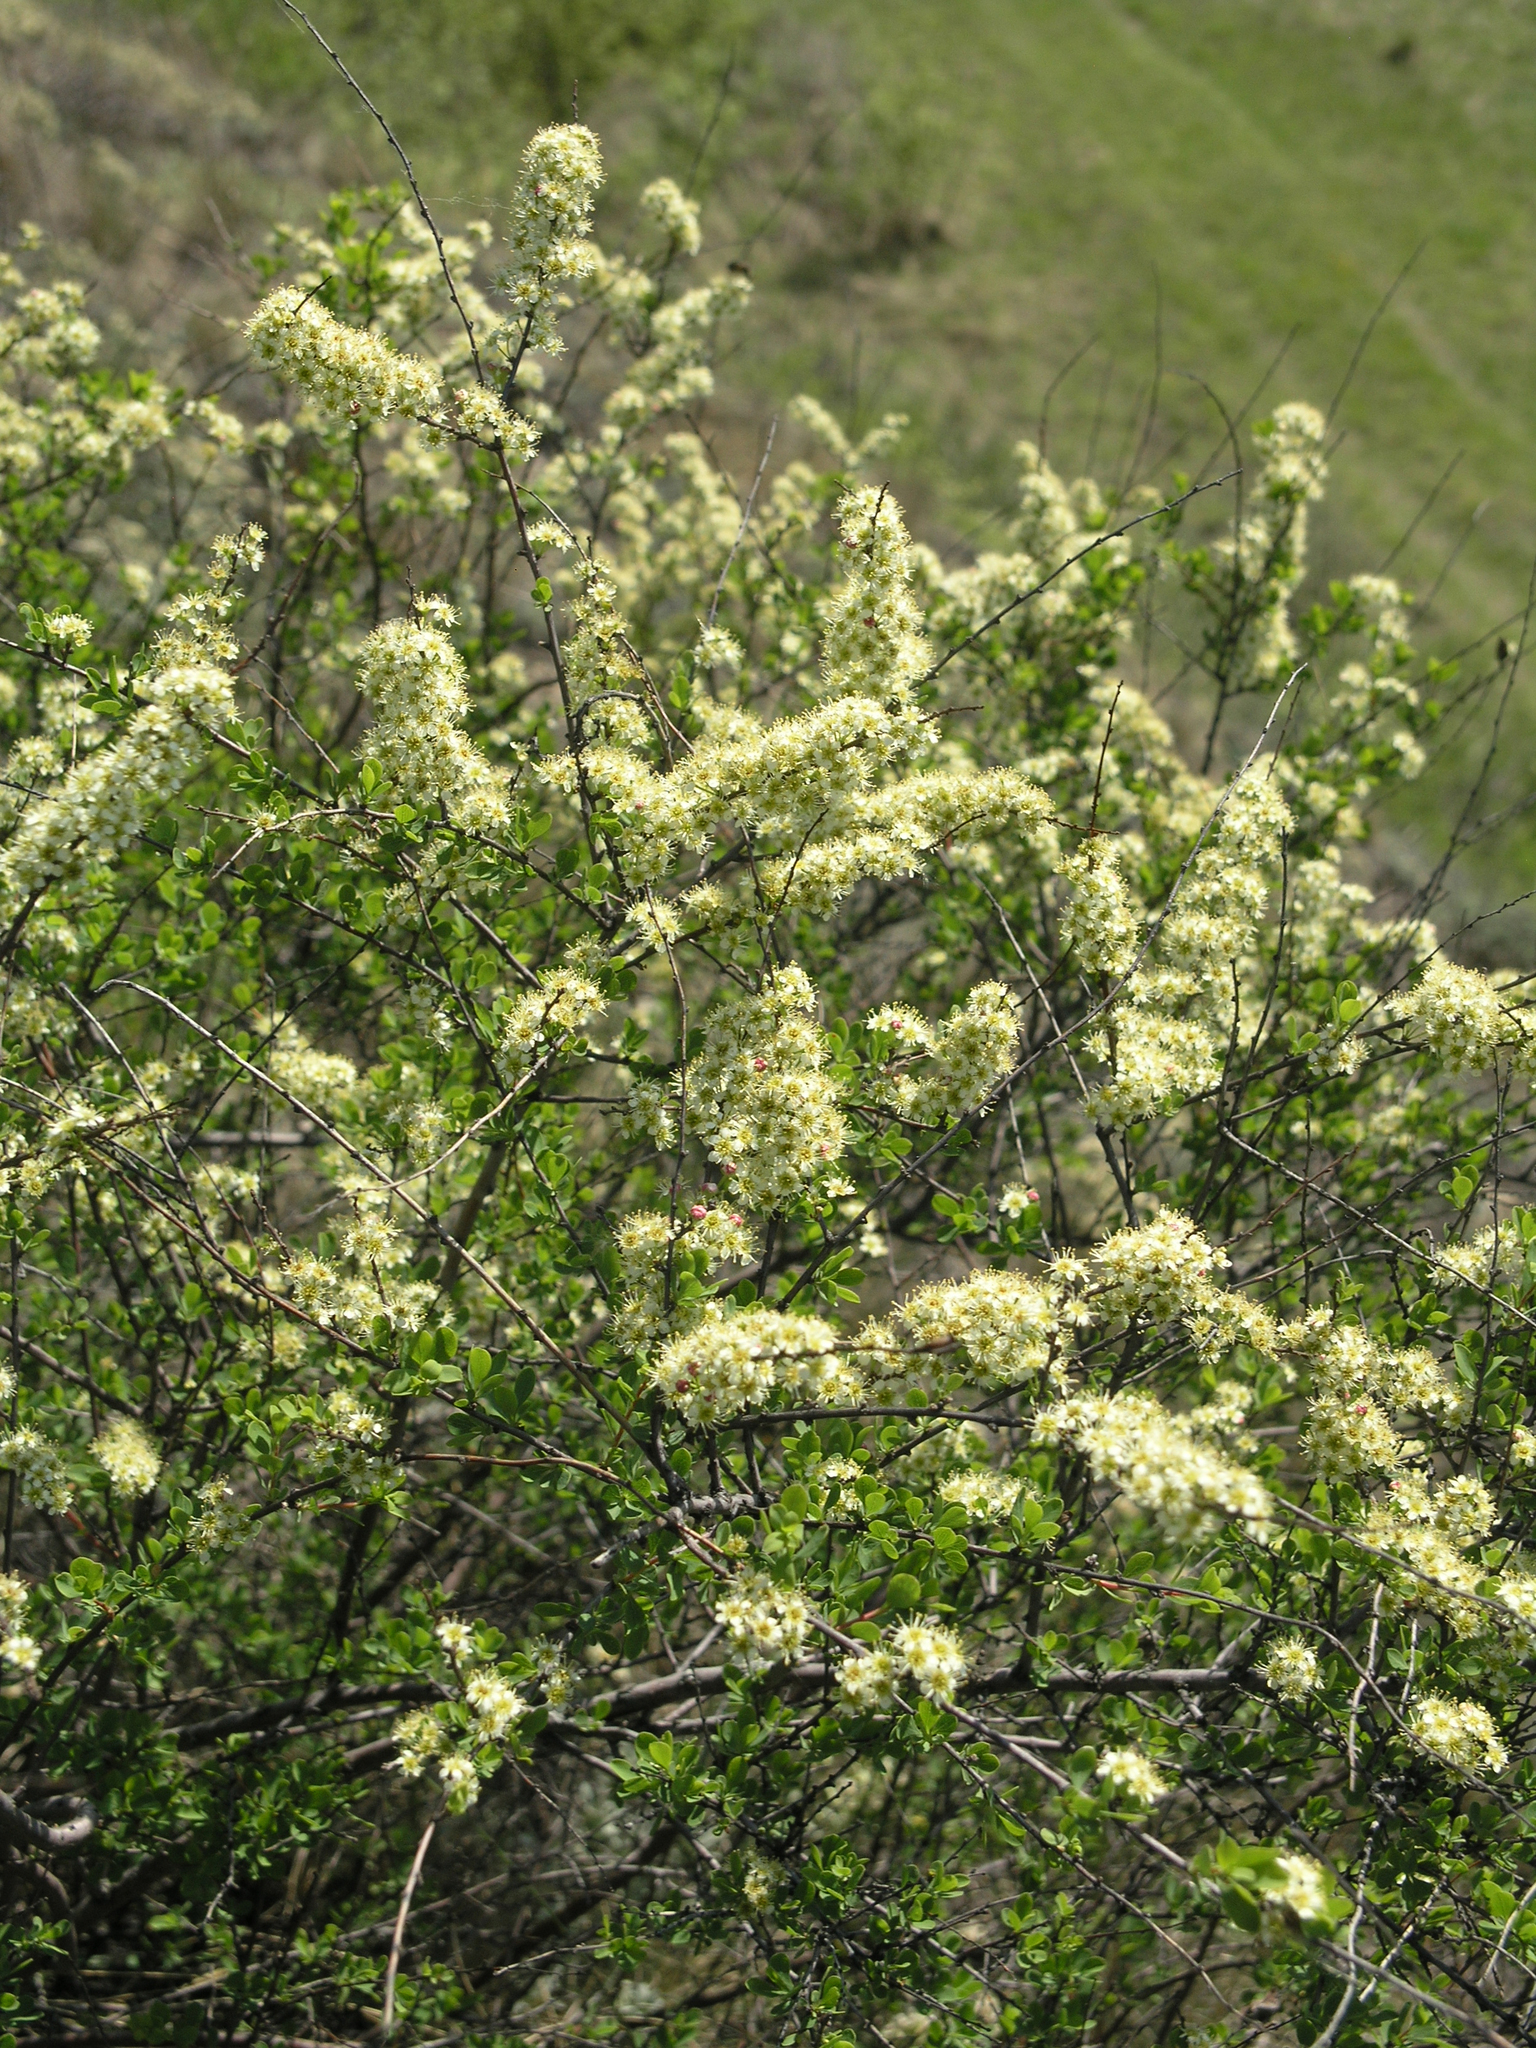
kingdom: Plantae
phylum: Tracheophyta
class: Magnoliopsida
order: Rosales
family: Rosaceae
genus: Spiraea
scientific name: Spiraea hypericifolia
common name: Iberian spirea
